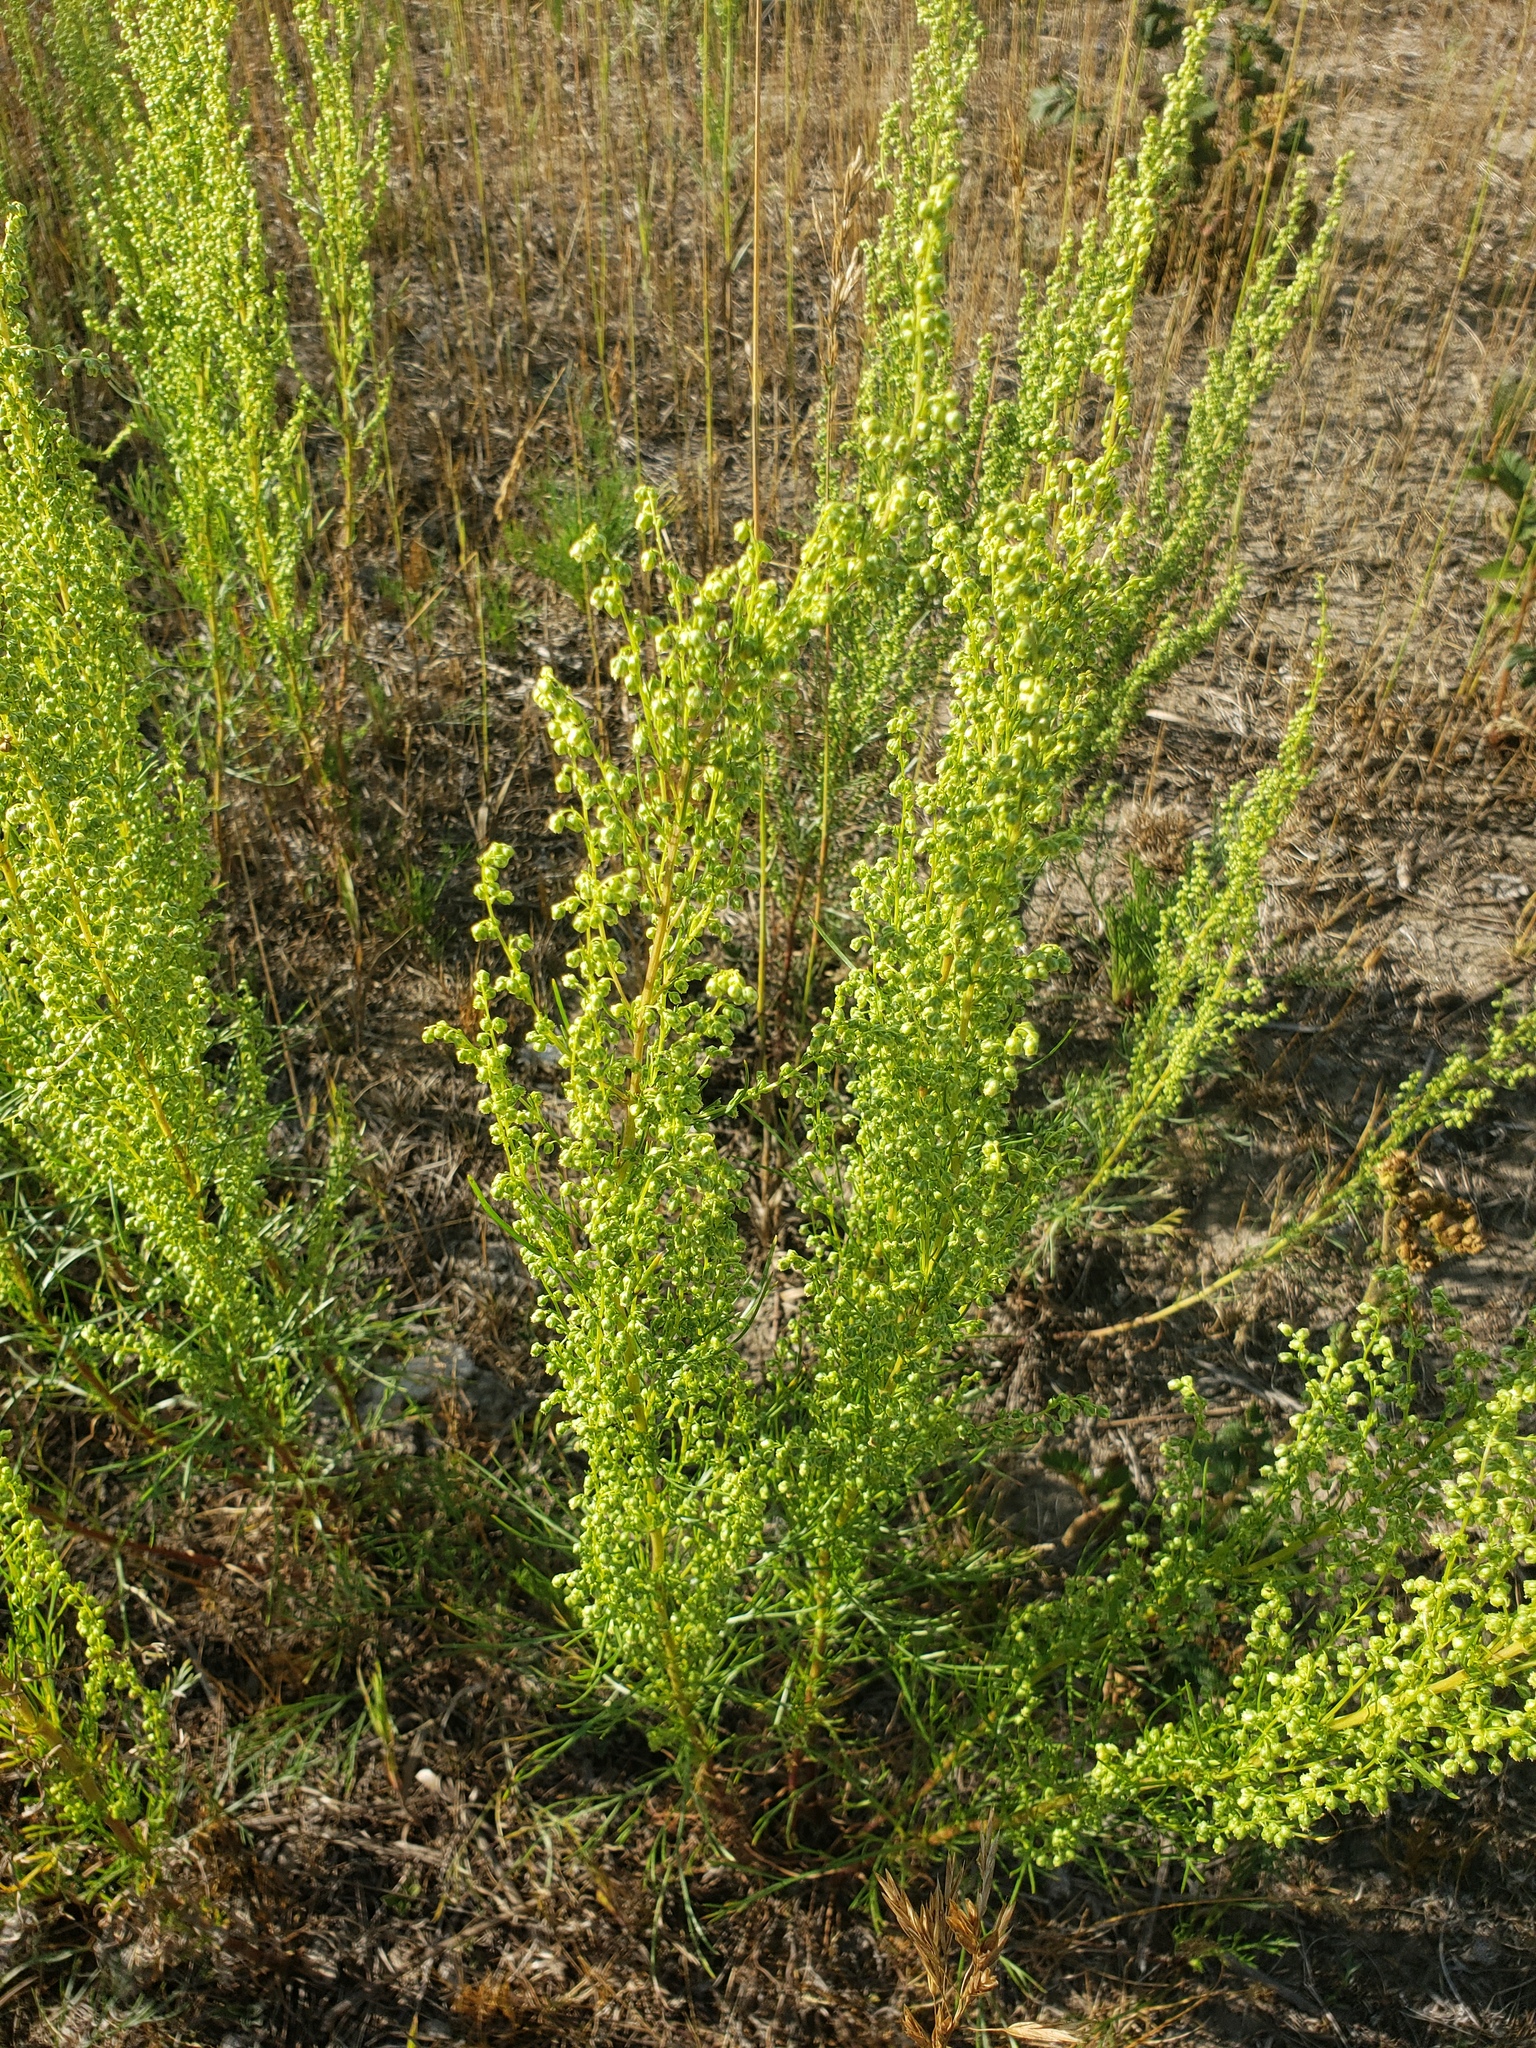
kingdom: Plantae
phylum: Tracheophyta
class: Magnoliopsida
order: Asterales
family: Asteraceae
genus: Artemisia
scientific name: Artemisia campestris
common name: Field wormwood
